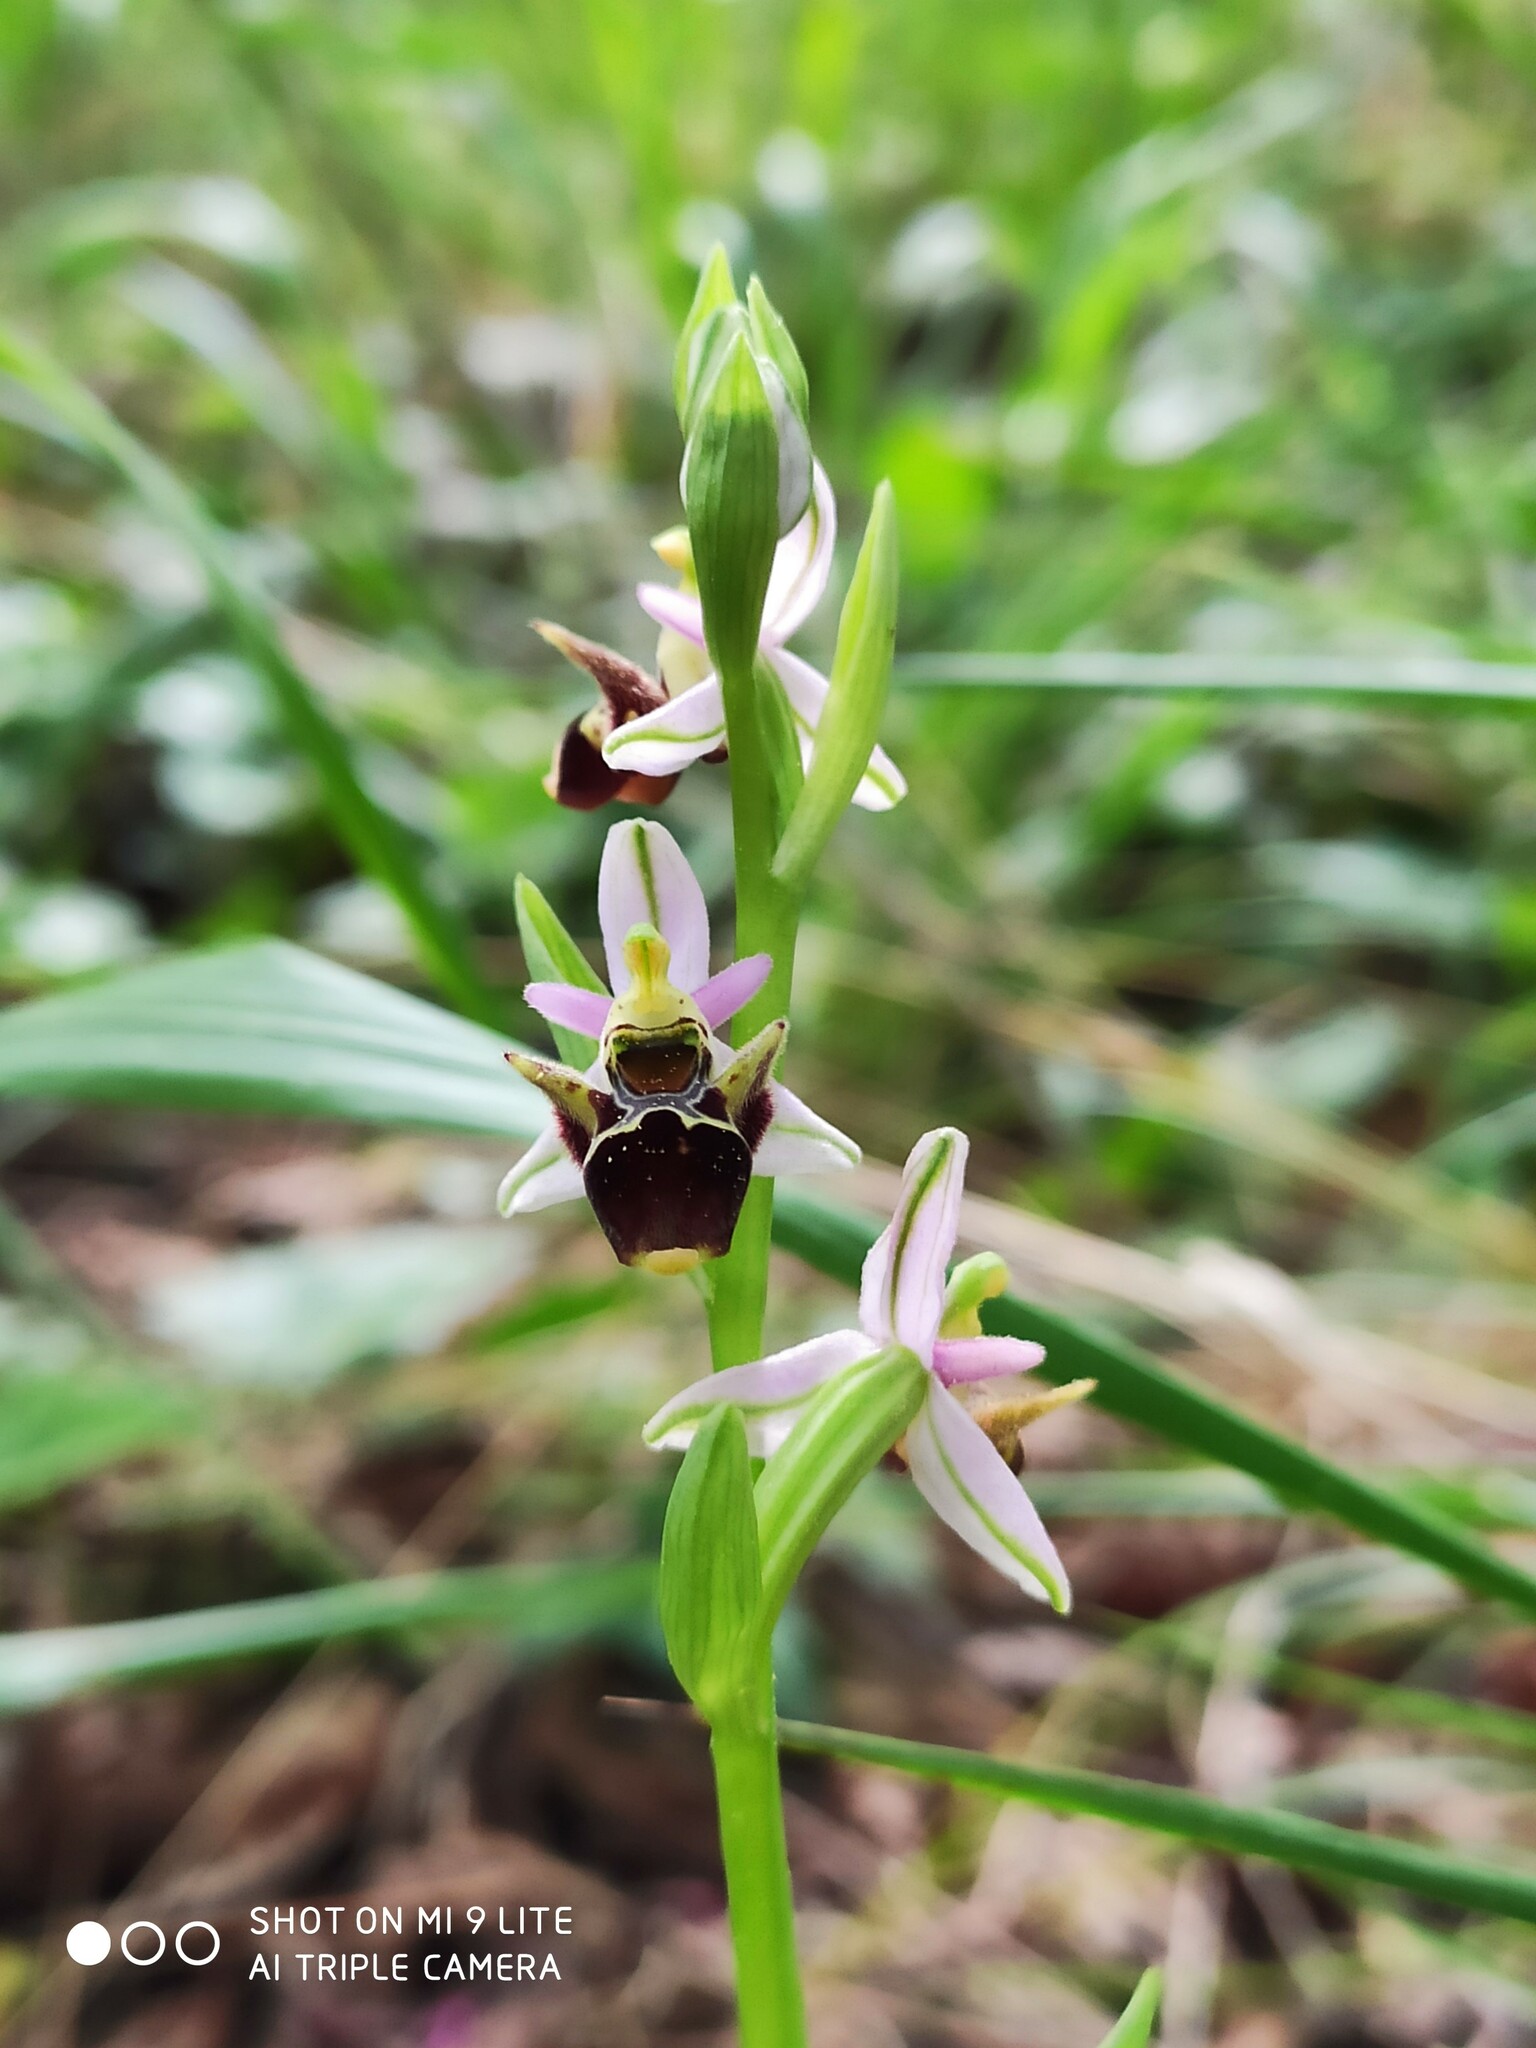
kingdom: Plantae
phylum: Tracheophyta
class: Liliopsida
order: Asparagales
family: Orchidaceae
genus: Ophrys
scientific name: Ophrys
